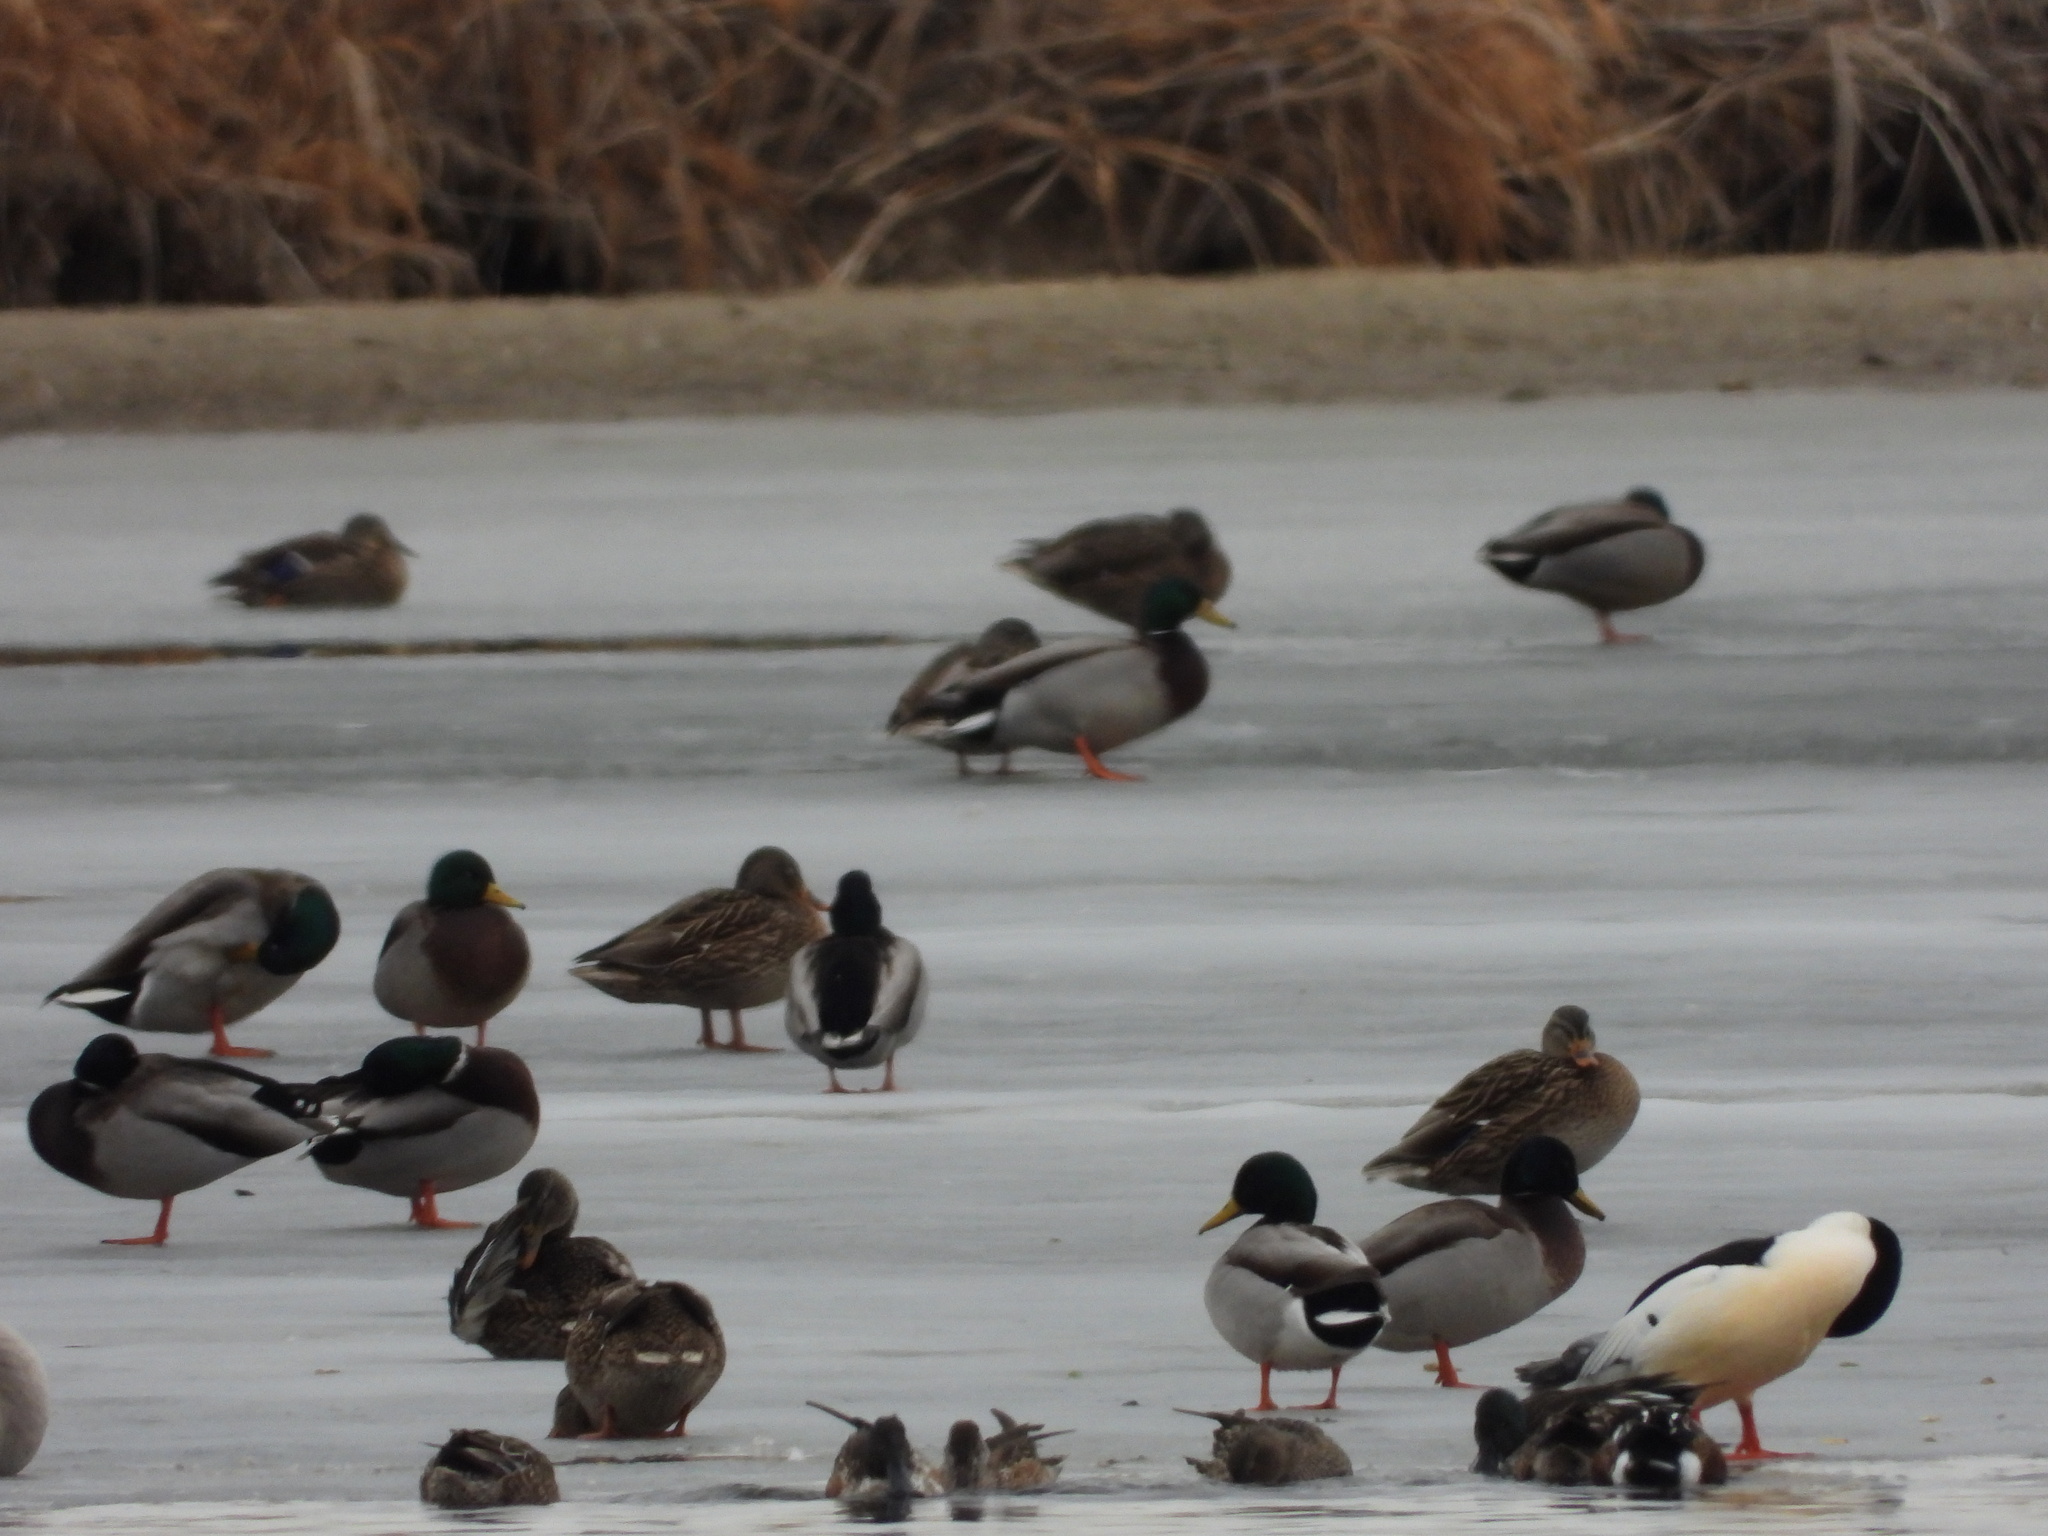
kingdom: Animalia
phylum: Chordata
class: Aves
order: Anseriformes
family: Anatidae
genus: Spatula
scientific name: Spatula clypeata
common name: Northern shoveler
